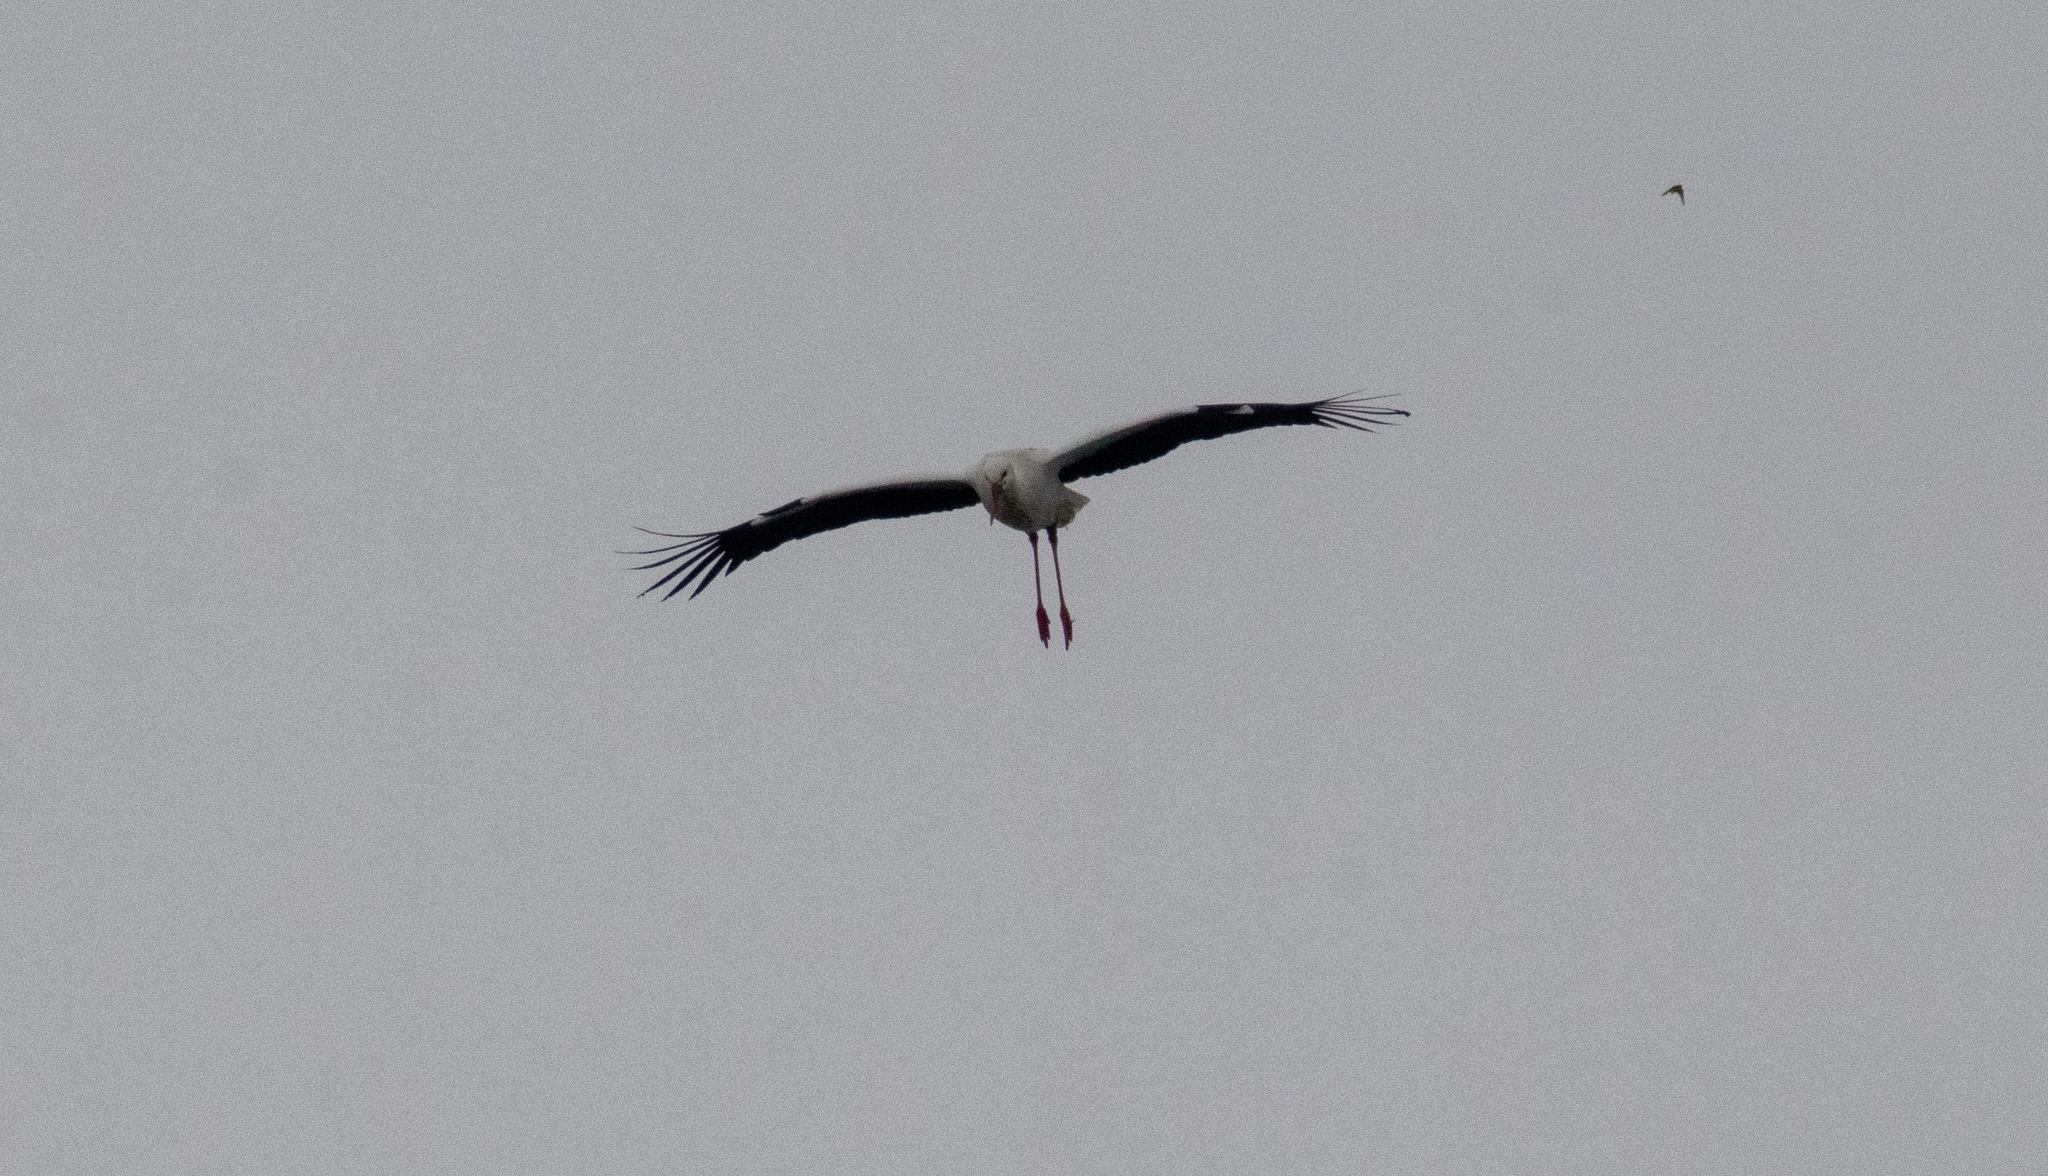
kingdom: Animalia
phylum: Chordata
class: Aves
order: Ciconiiformes
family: Ciconiidae
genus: Ciconia
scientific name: Ciconia ciconia
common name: White stork
